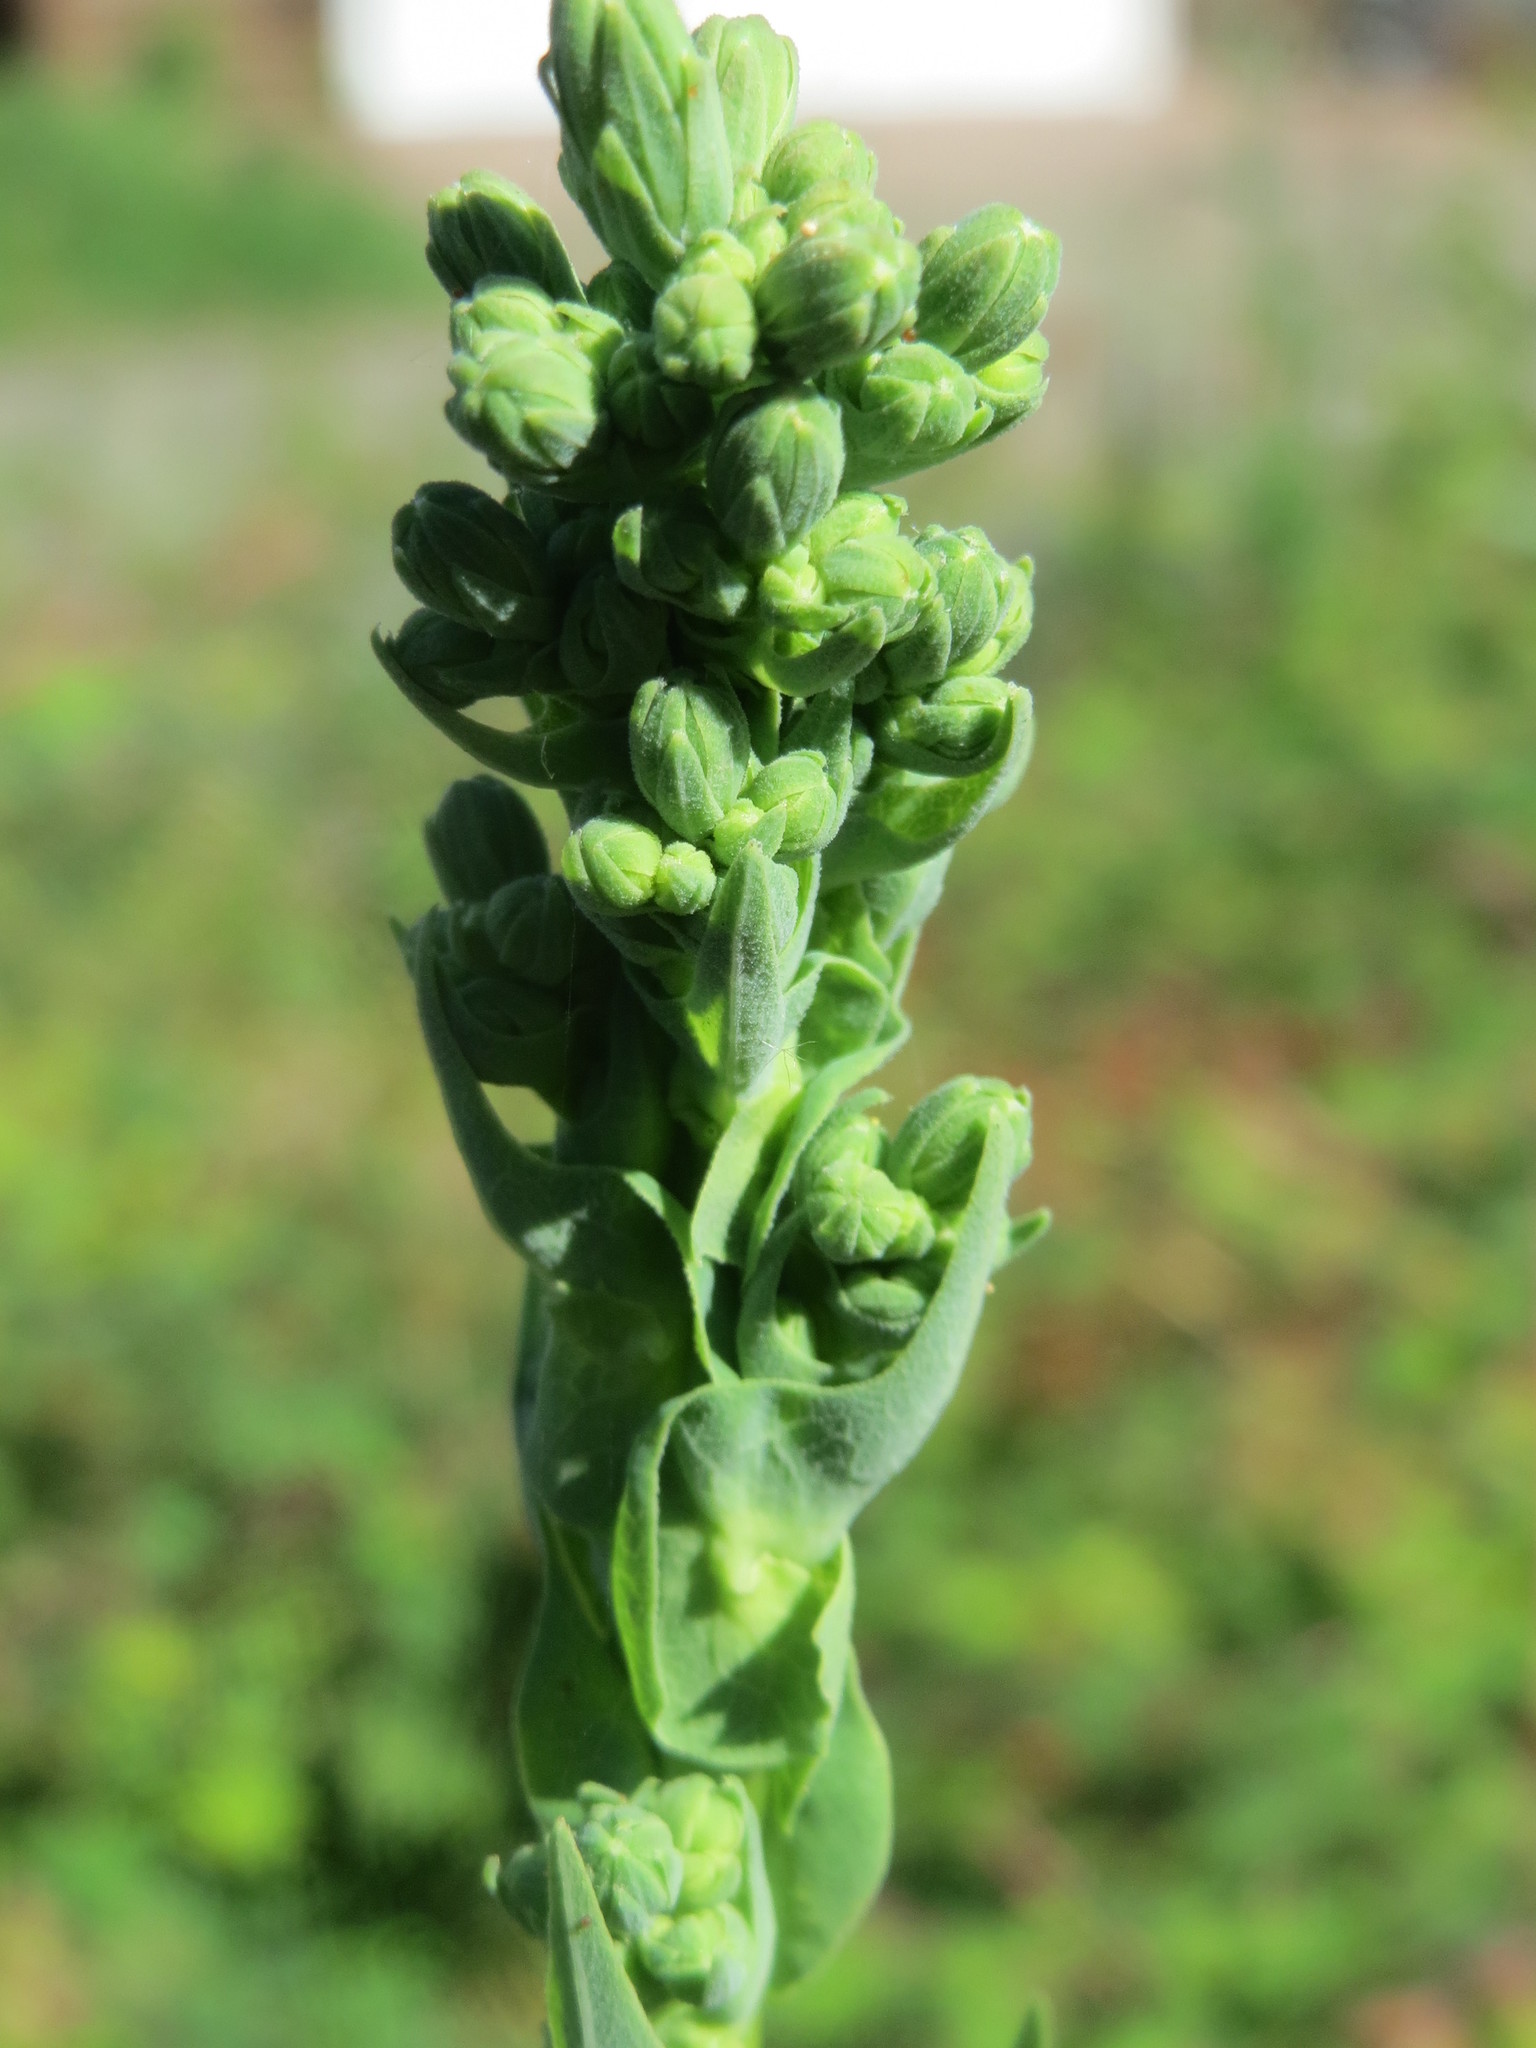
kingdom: Plantae
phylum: Tracheophyta
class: Magnoliopsida
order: Asterales
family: Asteraceae
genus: Lactuca
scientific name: Lactuca virosa
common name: Great lettuce
